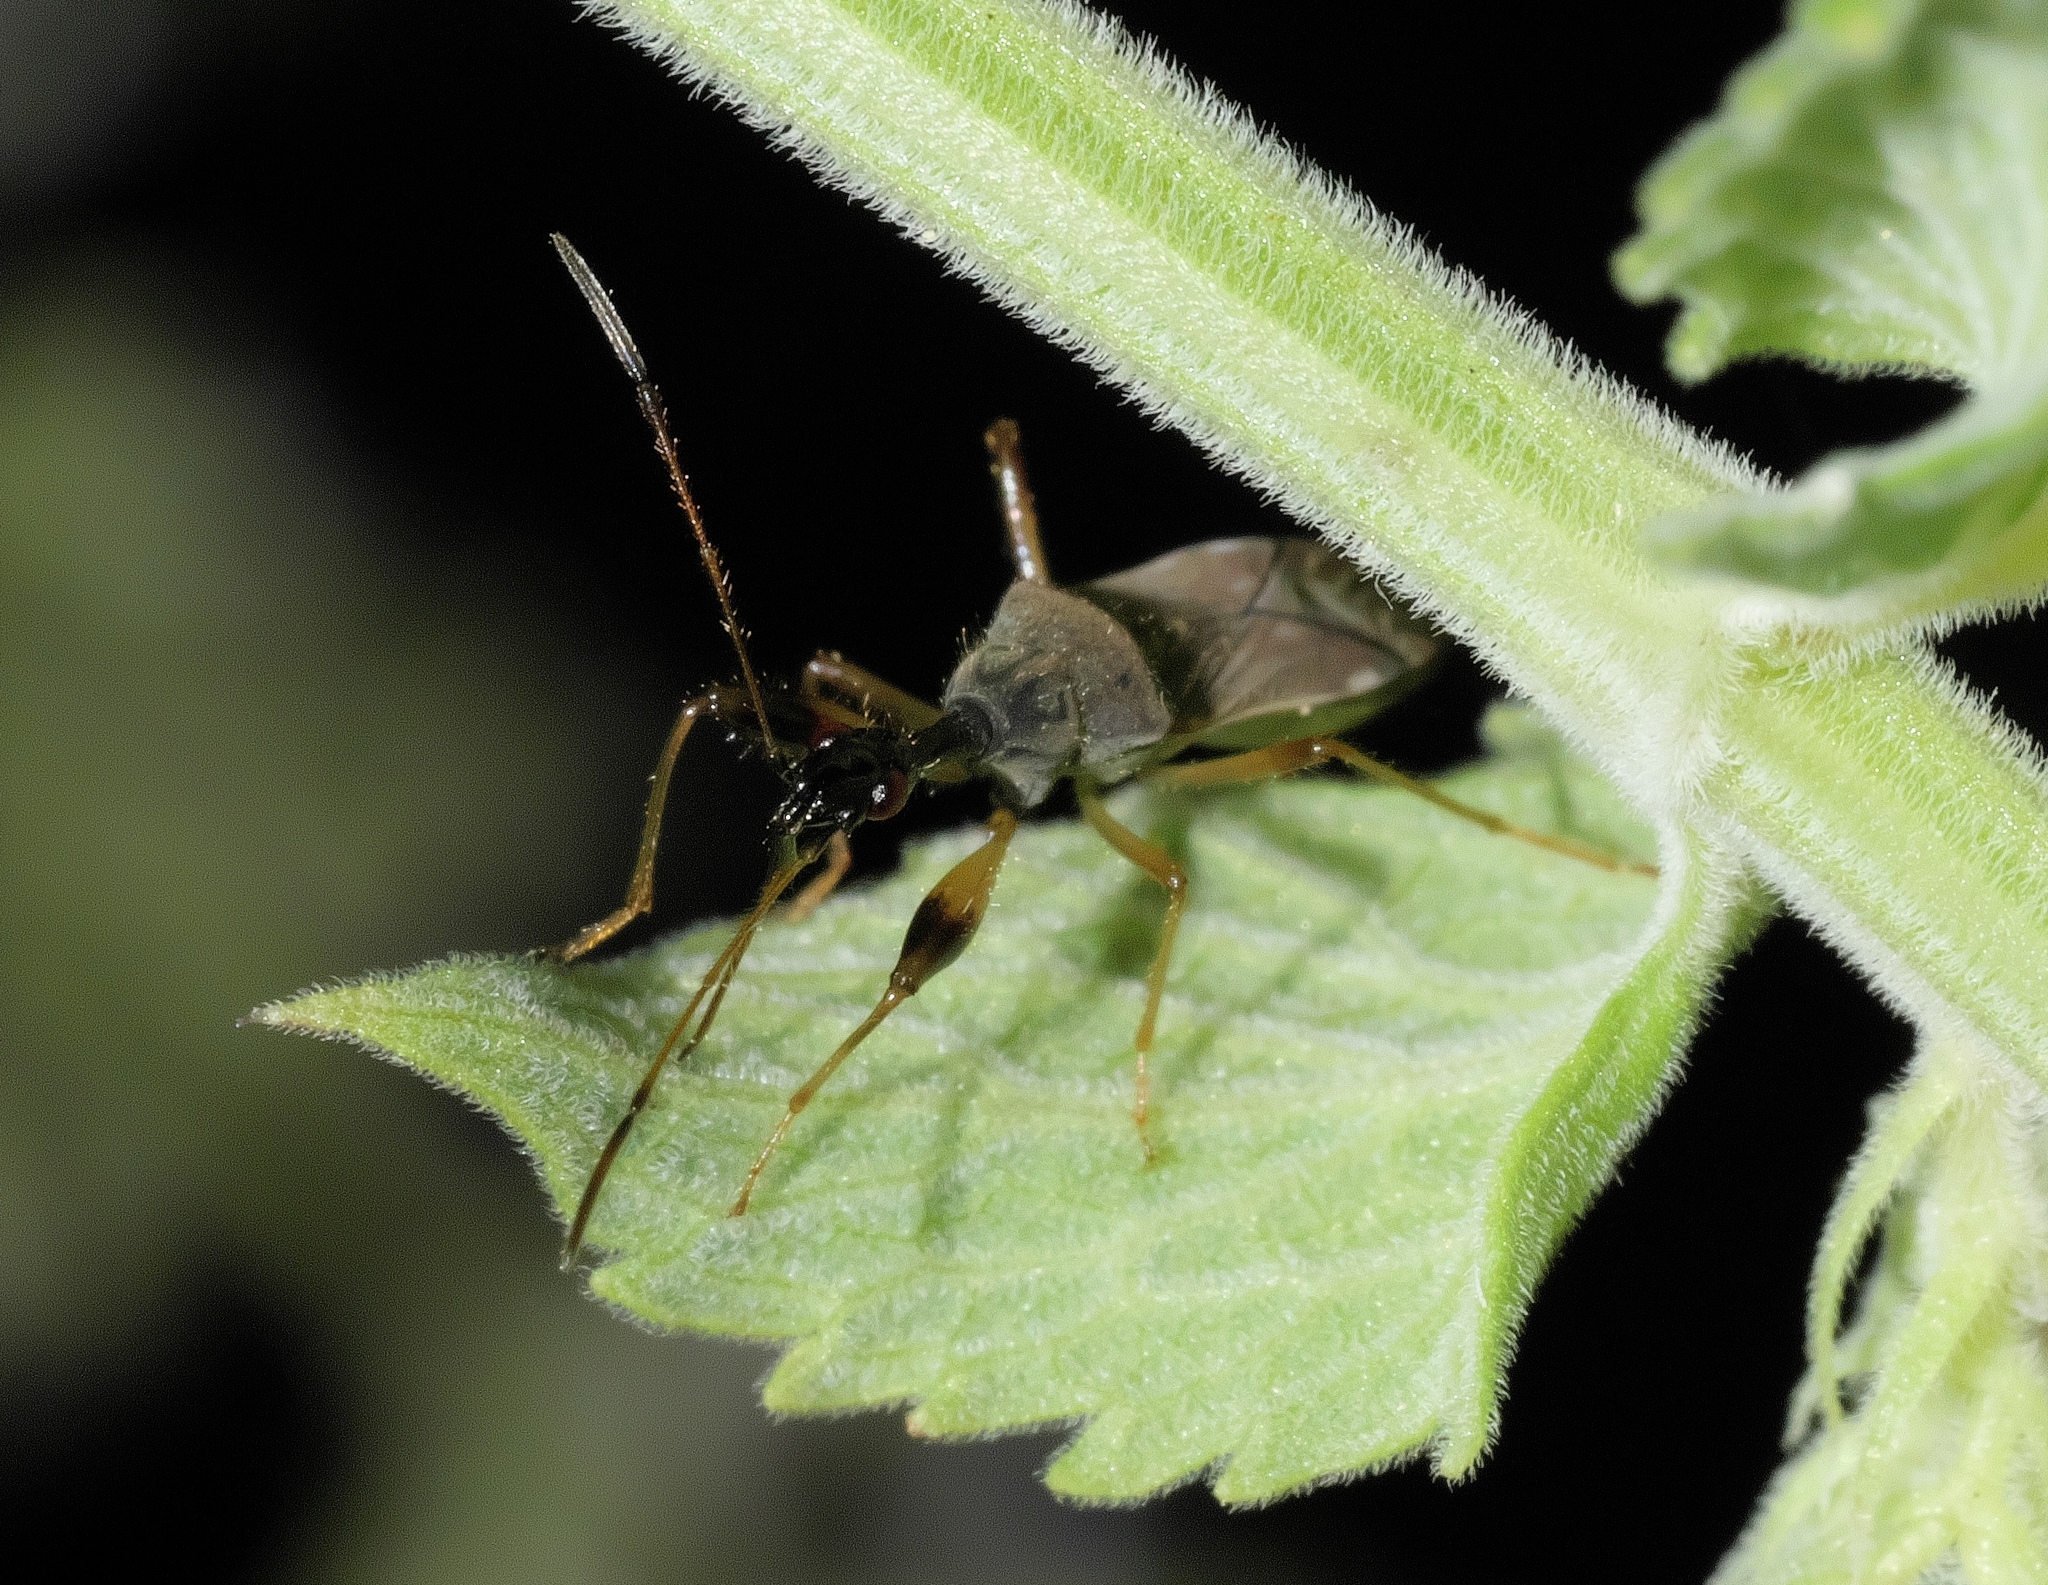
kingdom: Animalia
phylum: Arthropoda
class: Insecta
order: Hemiptera
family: Rhyparochromidae
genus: Myodocha
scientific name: Myodocha serripes
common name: Long-necked seed bug
